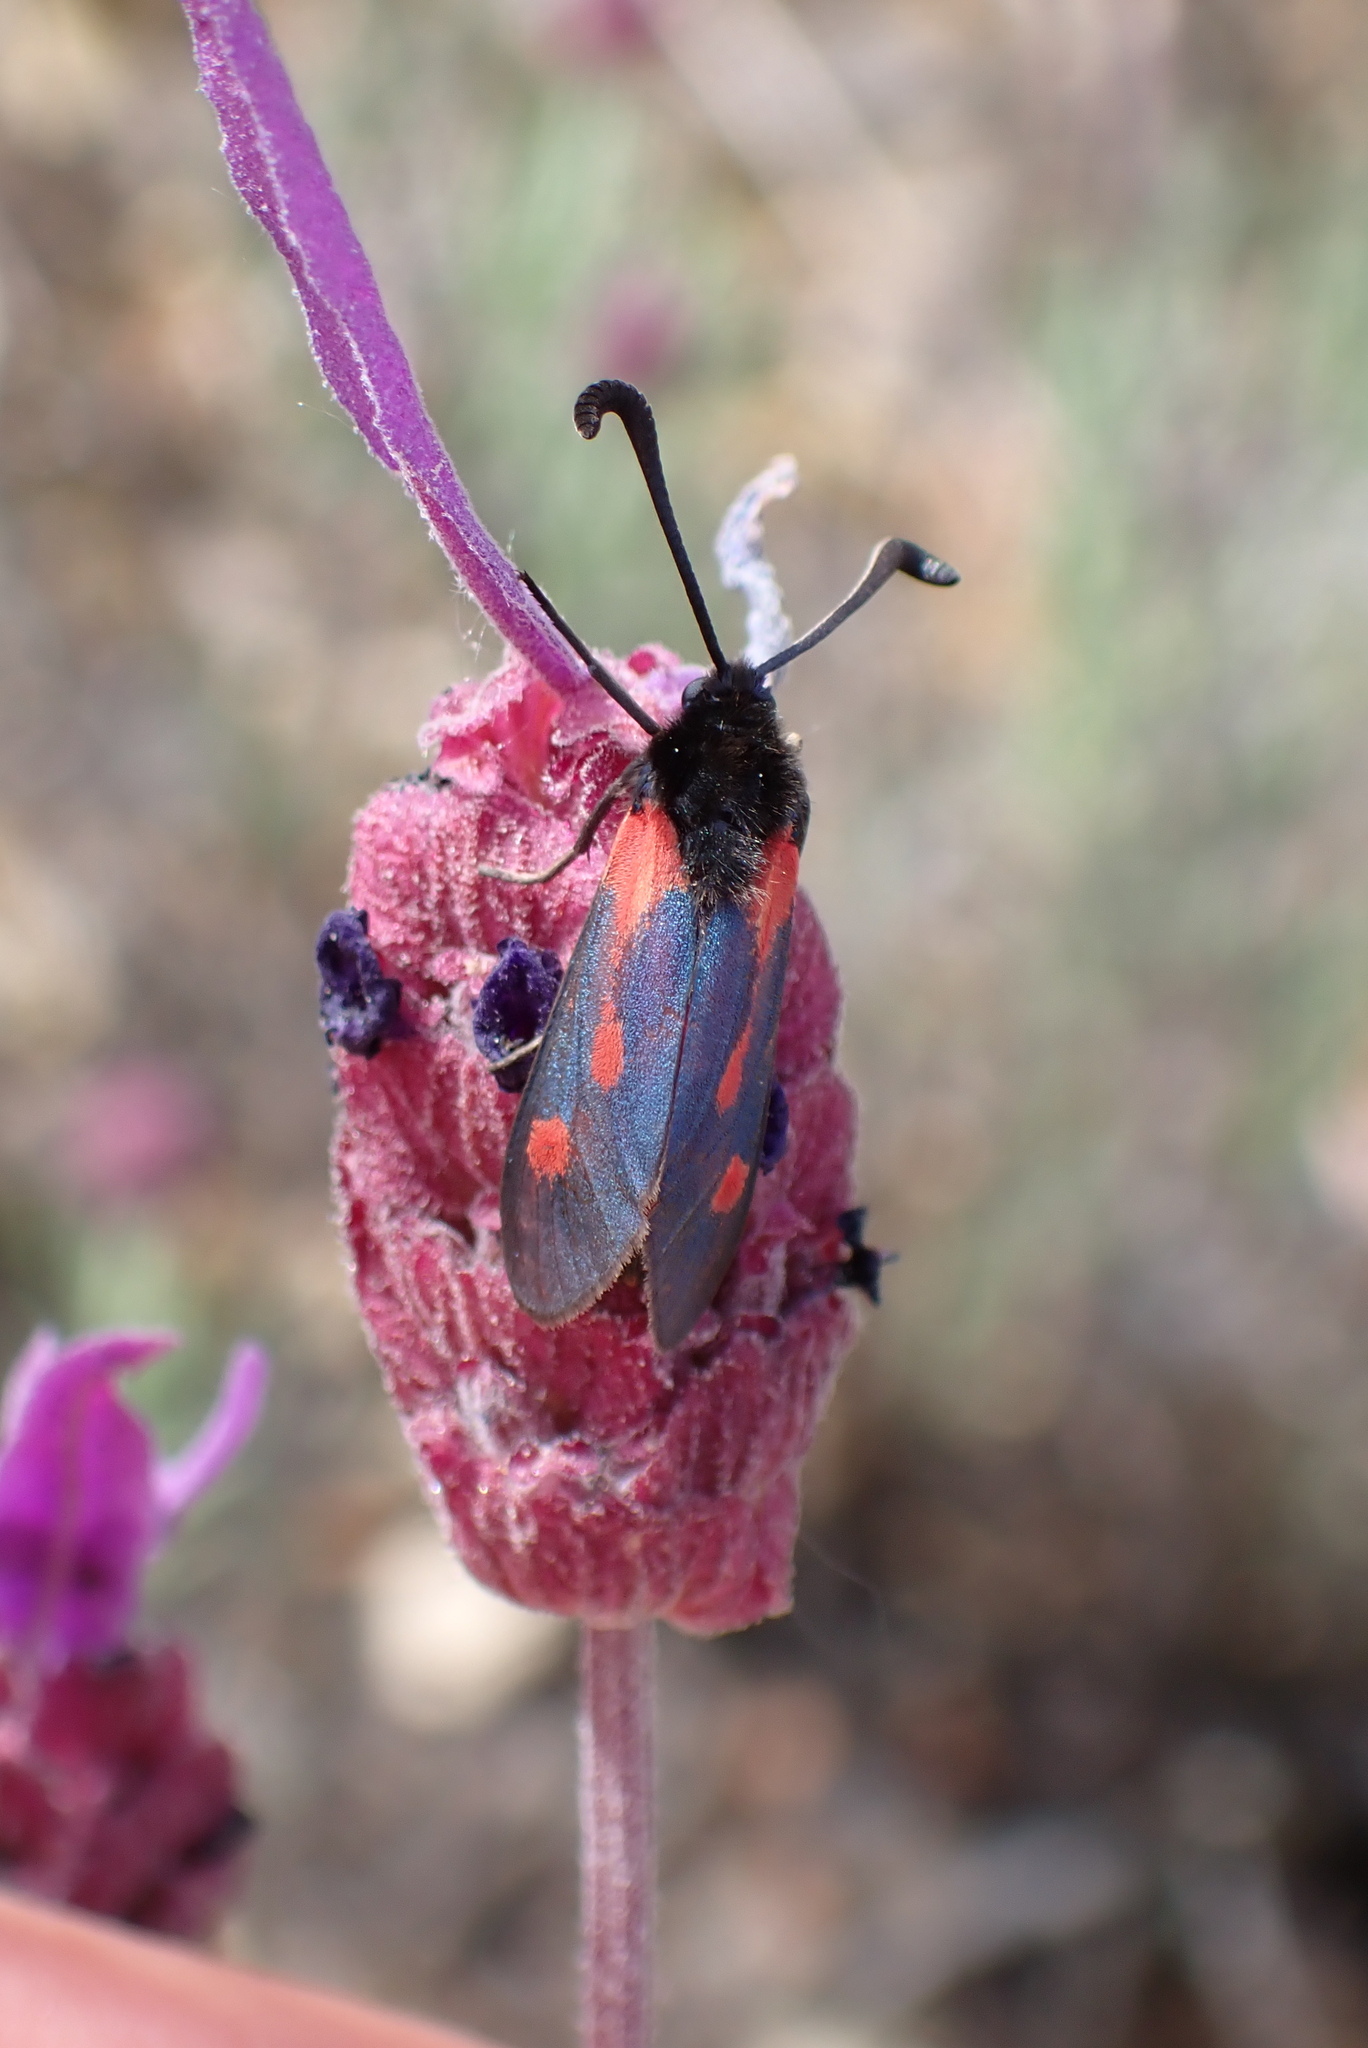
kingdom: Plantae
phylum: Tracheophyta
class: Magnoliopsida
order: Lamiales
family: Lamiaceae
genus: Lavandula
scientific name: Lavandula pedunculata
